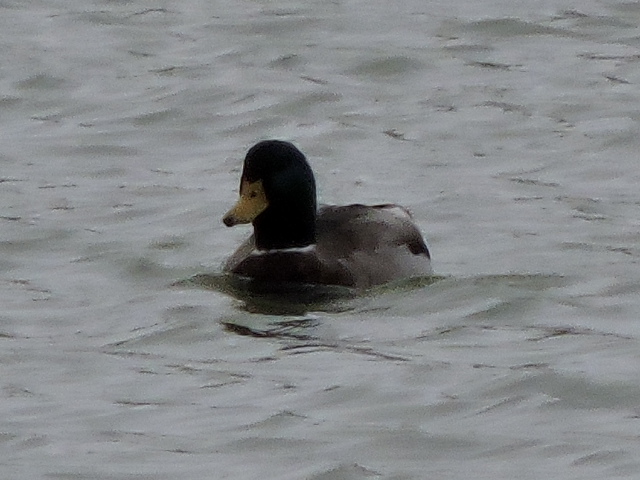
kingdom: Animalia
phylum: Chordata
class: Aves
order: Anseriformes
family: Anatidae
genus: Anas
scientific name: Anas platyrhynchos
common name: Mallard
